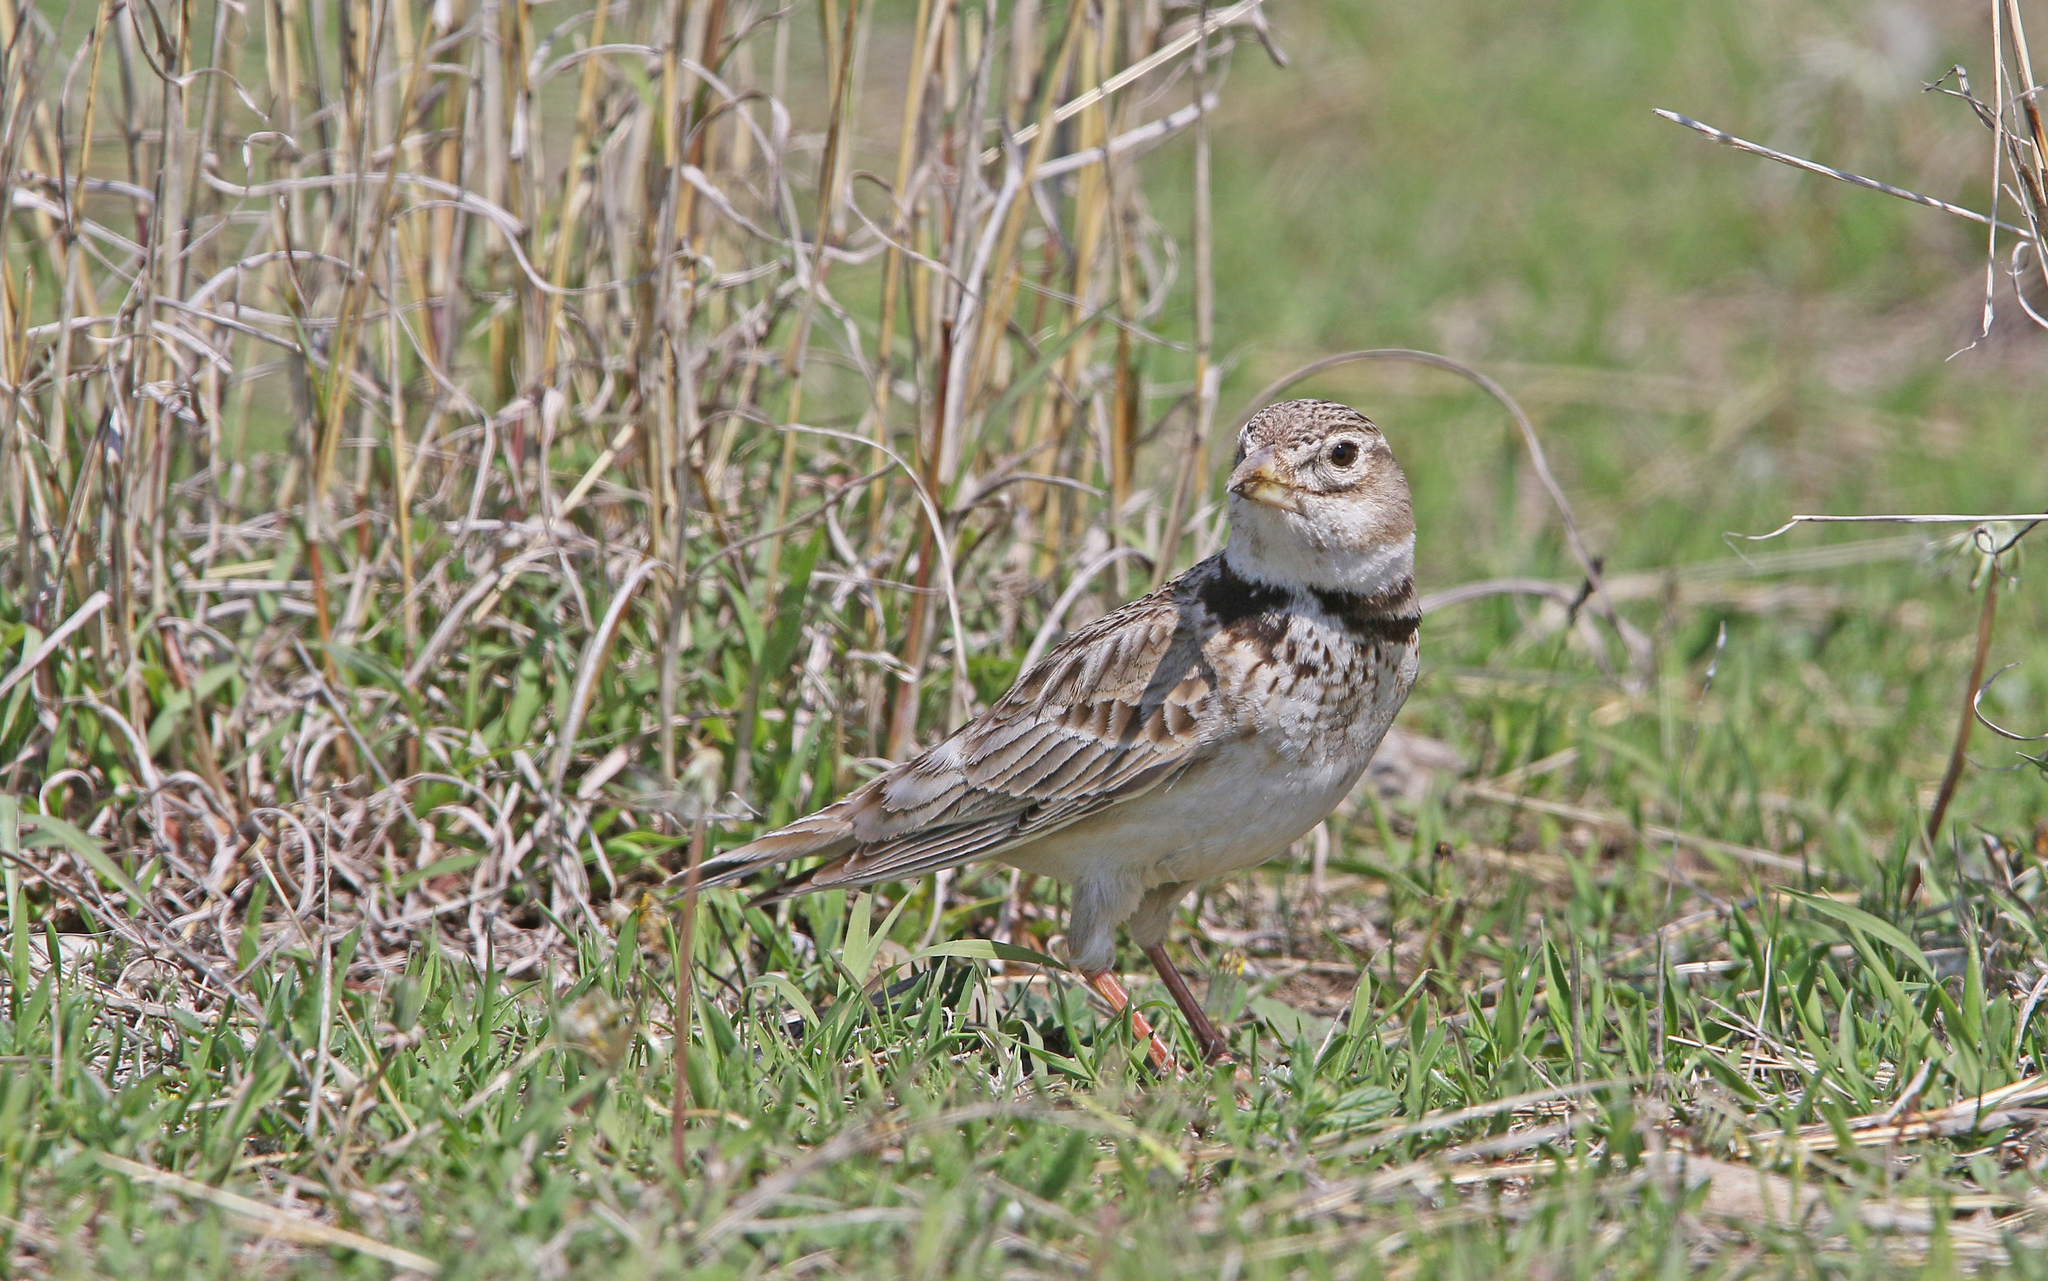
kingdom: Animalia
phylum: Chordata
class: Aves
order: Passeriformes
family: Alaudidae
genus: Melanocorypha
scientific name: Melanocorypha calandra
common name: Calandra lark
